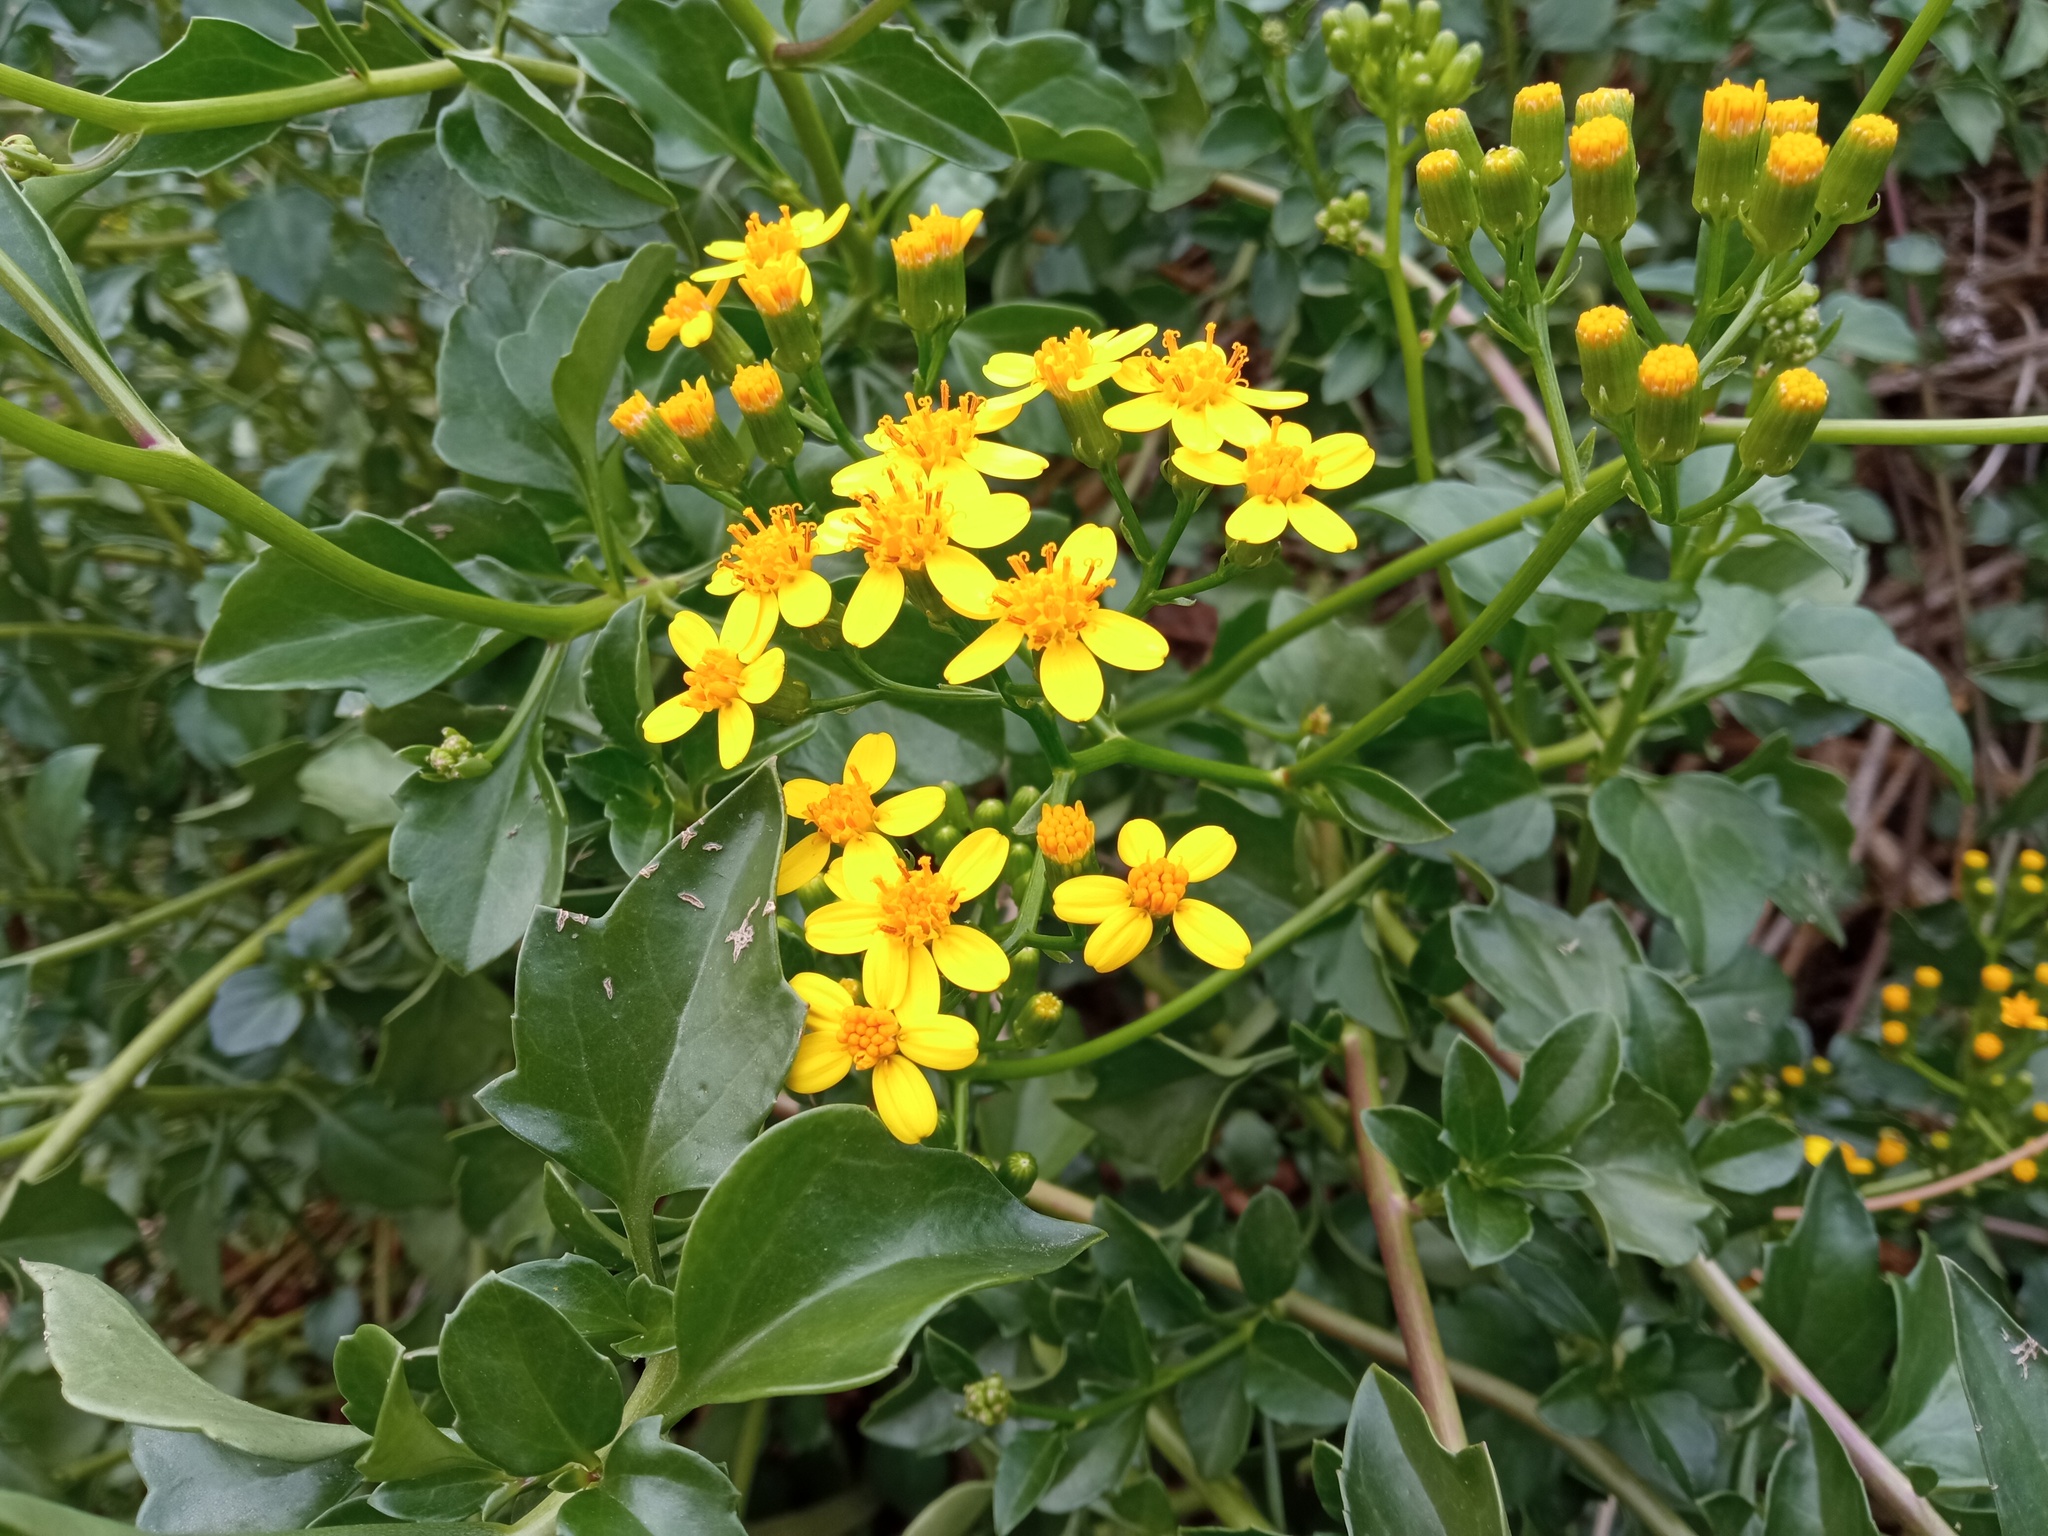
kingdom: Plantae
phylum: Tracheophyta
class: Magnoliopsida
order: Asterales
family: Asteraceae
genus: Senecio
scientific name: Senecio angulatus
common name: Climbing groundsel
